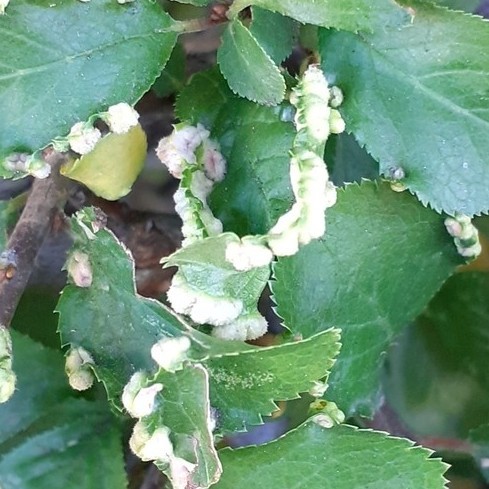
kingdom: Animalia
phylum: Arthropoda
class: Arachnida
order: Trombidiformes
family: Eriophyidae
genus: Eriophyes
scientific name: Eriophyes prunispinosae
